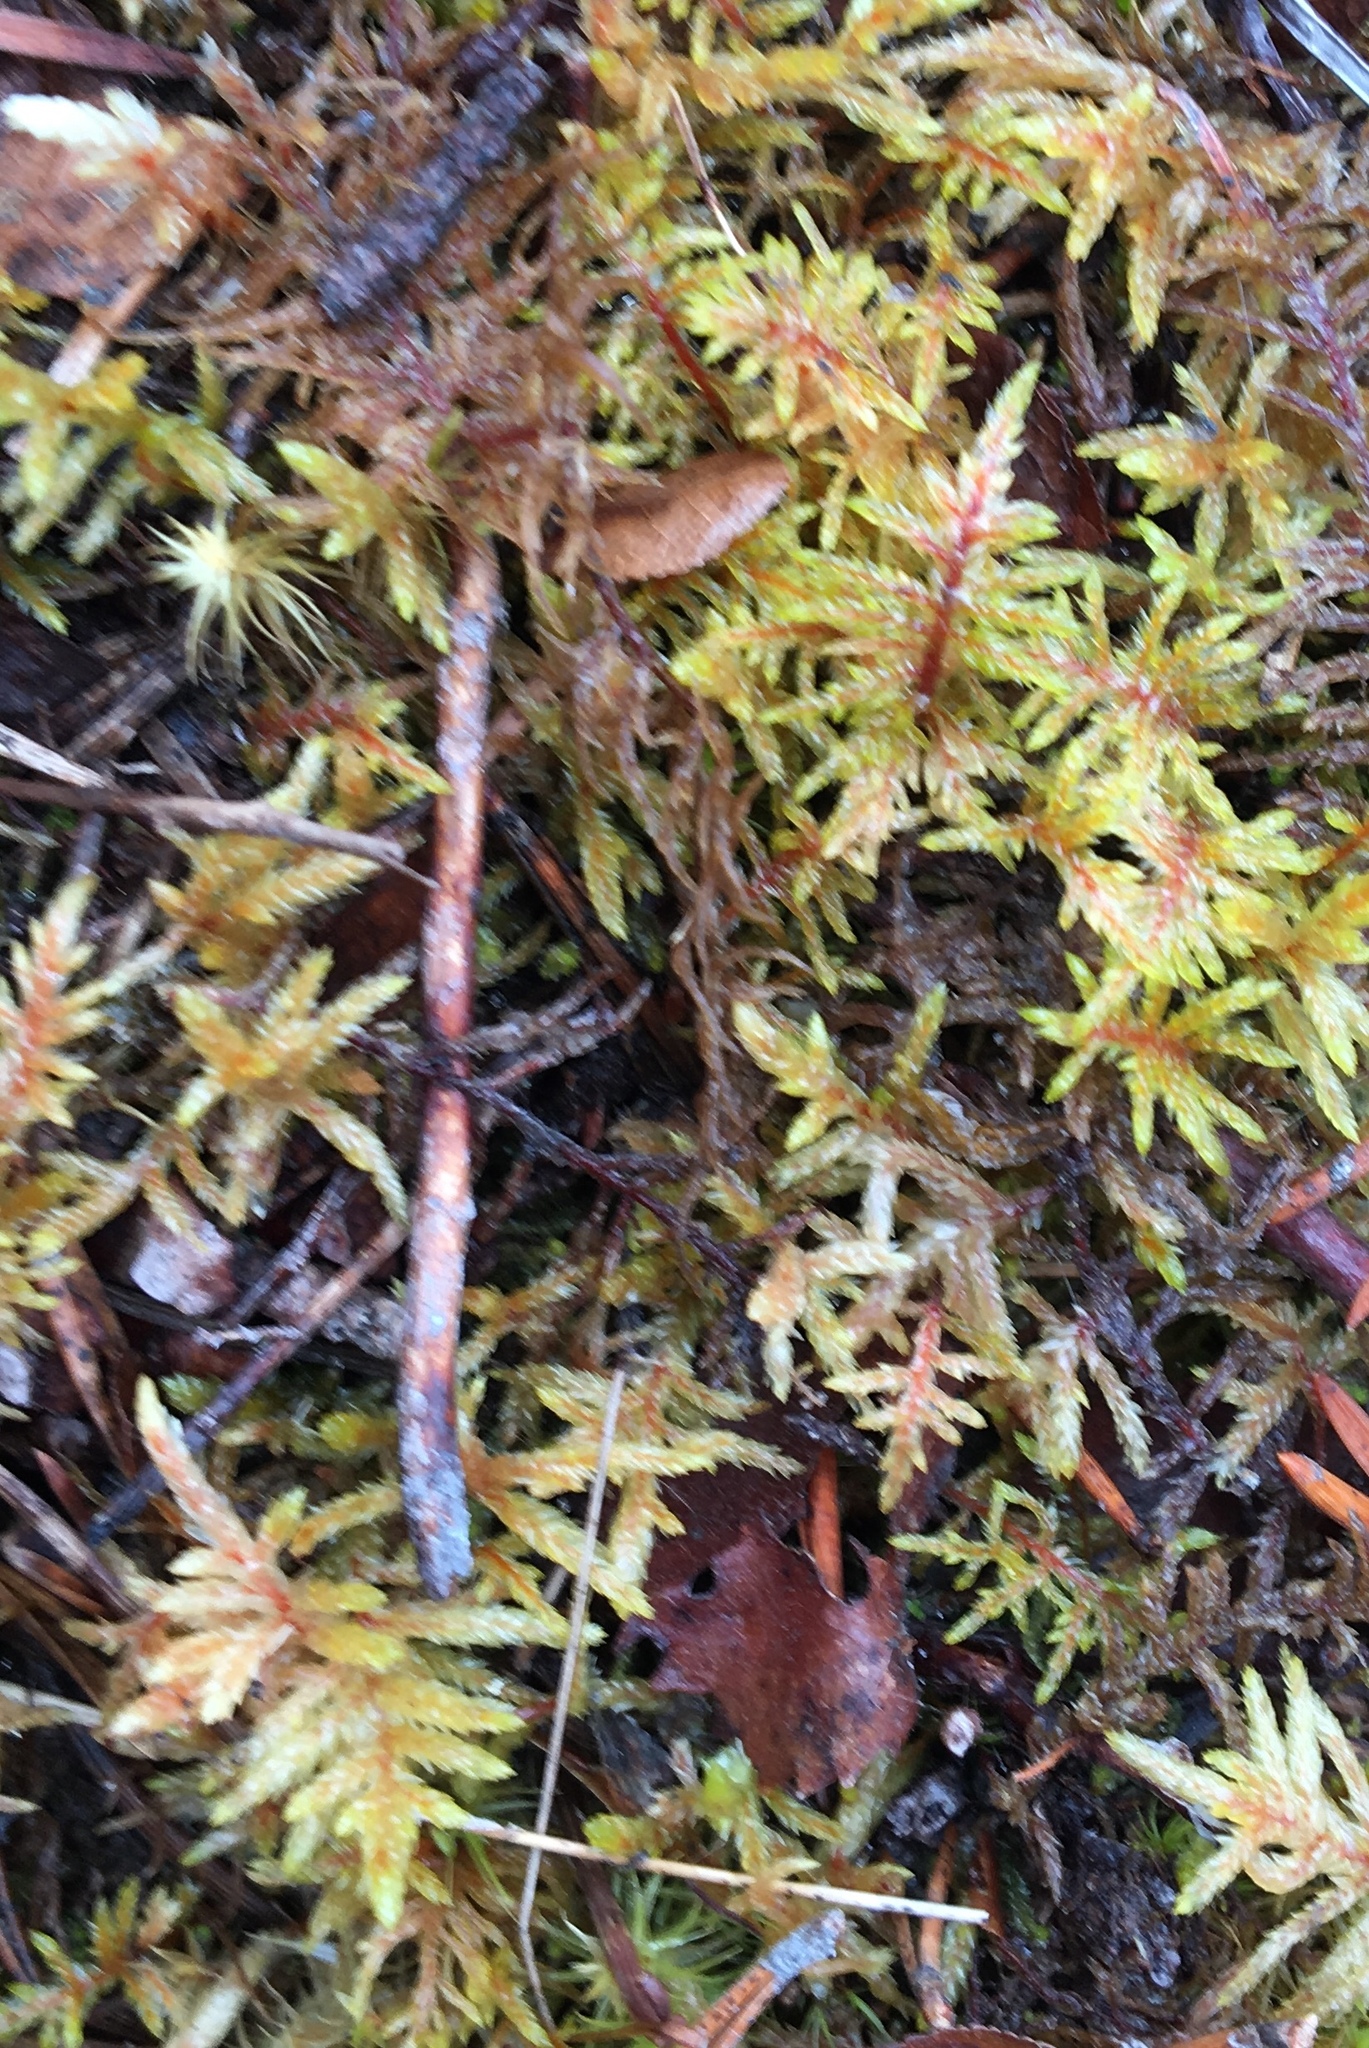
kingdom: Plantae
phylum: Bryophyta
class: Bryopsida
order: Hypnales
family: Hylocomiaceae
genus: Pleurozium
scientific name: Pleurozium schreberi
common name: Red-stemmed feather moss
